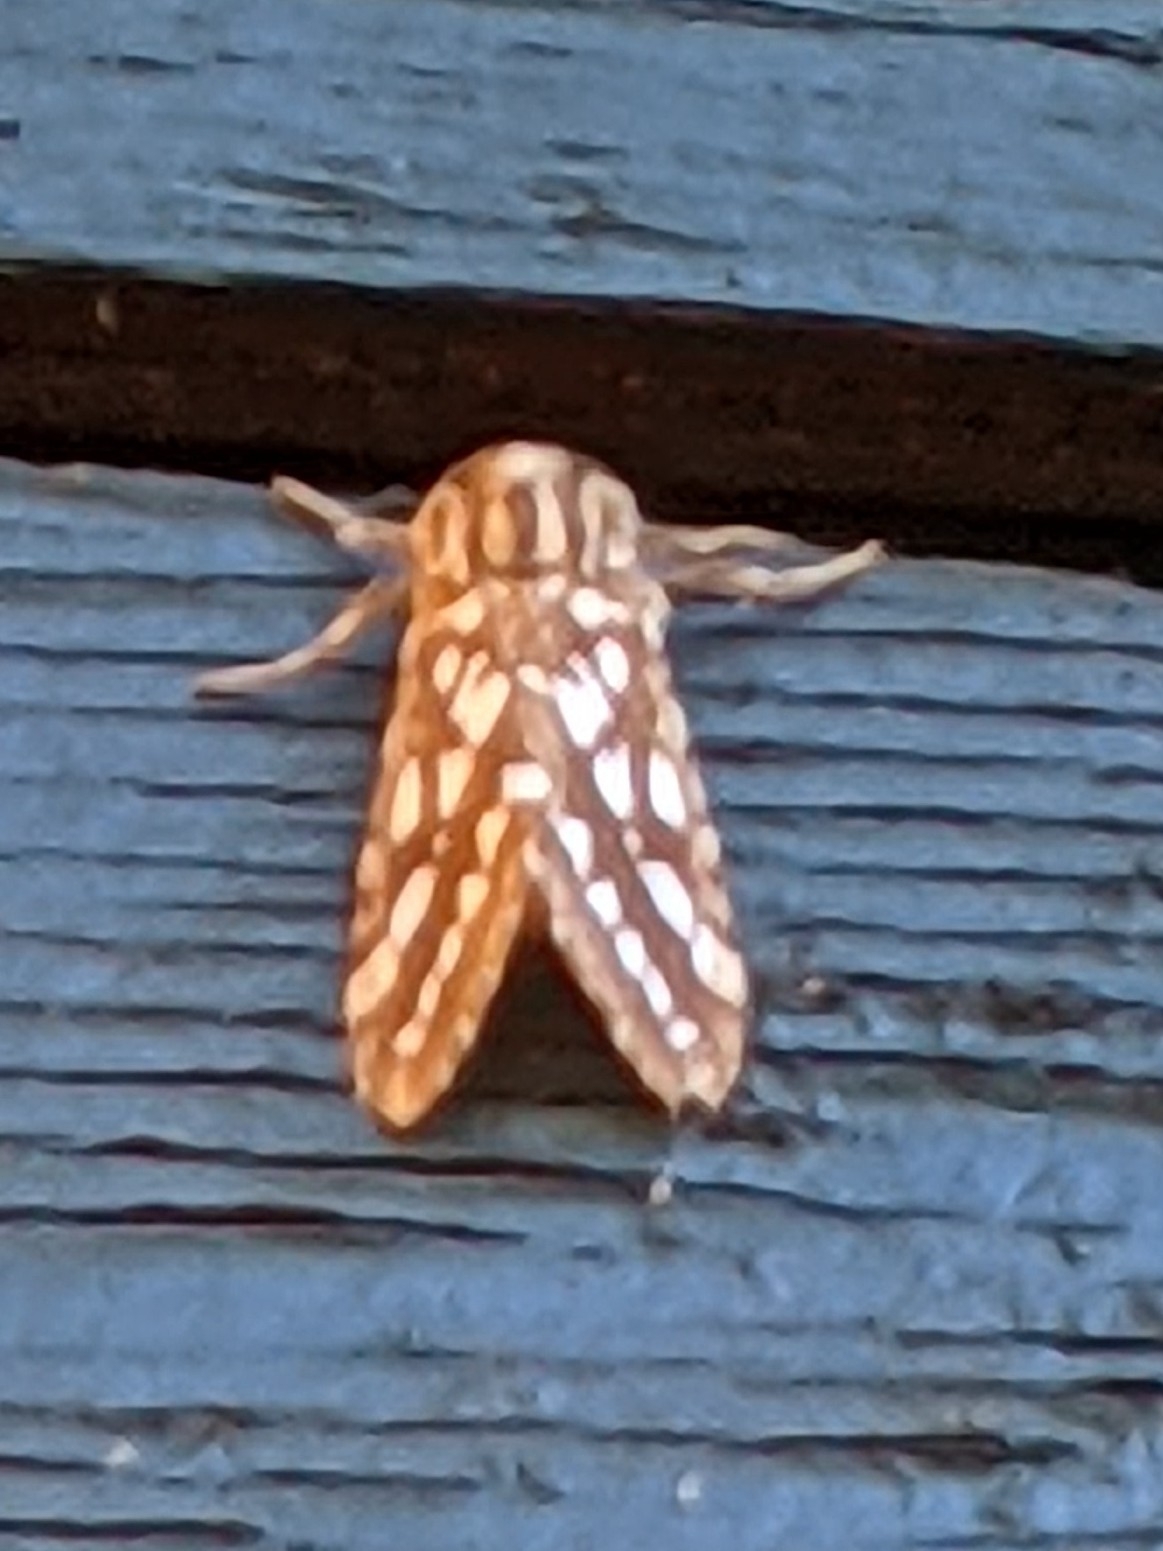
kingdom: Animalia
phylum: Arthropoda
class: Insecta
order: Lepidoptera
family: Erebidae
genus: Lophocampa
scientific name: Lophocampa argentata
